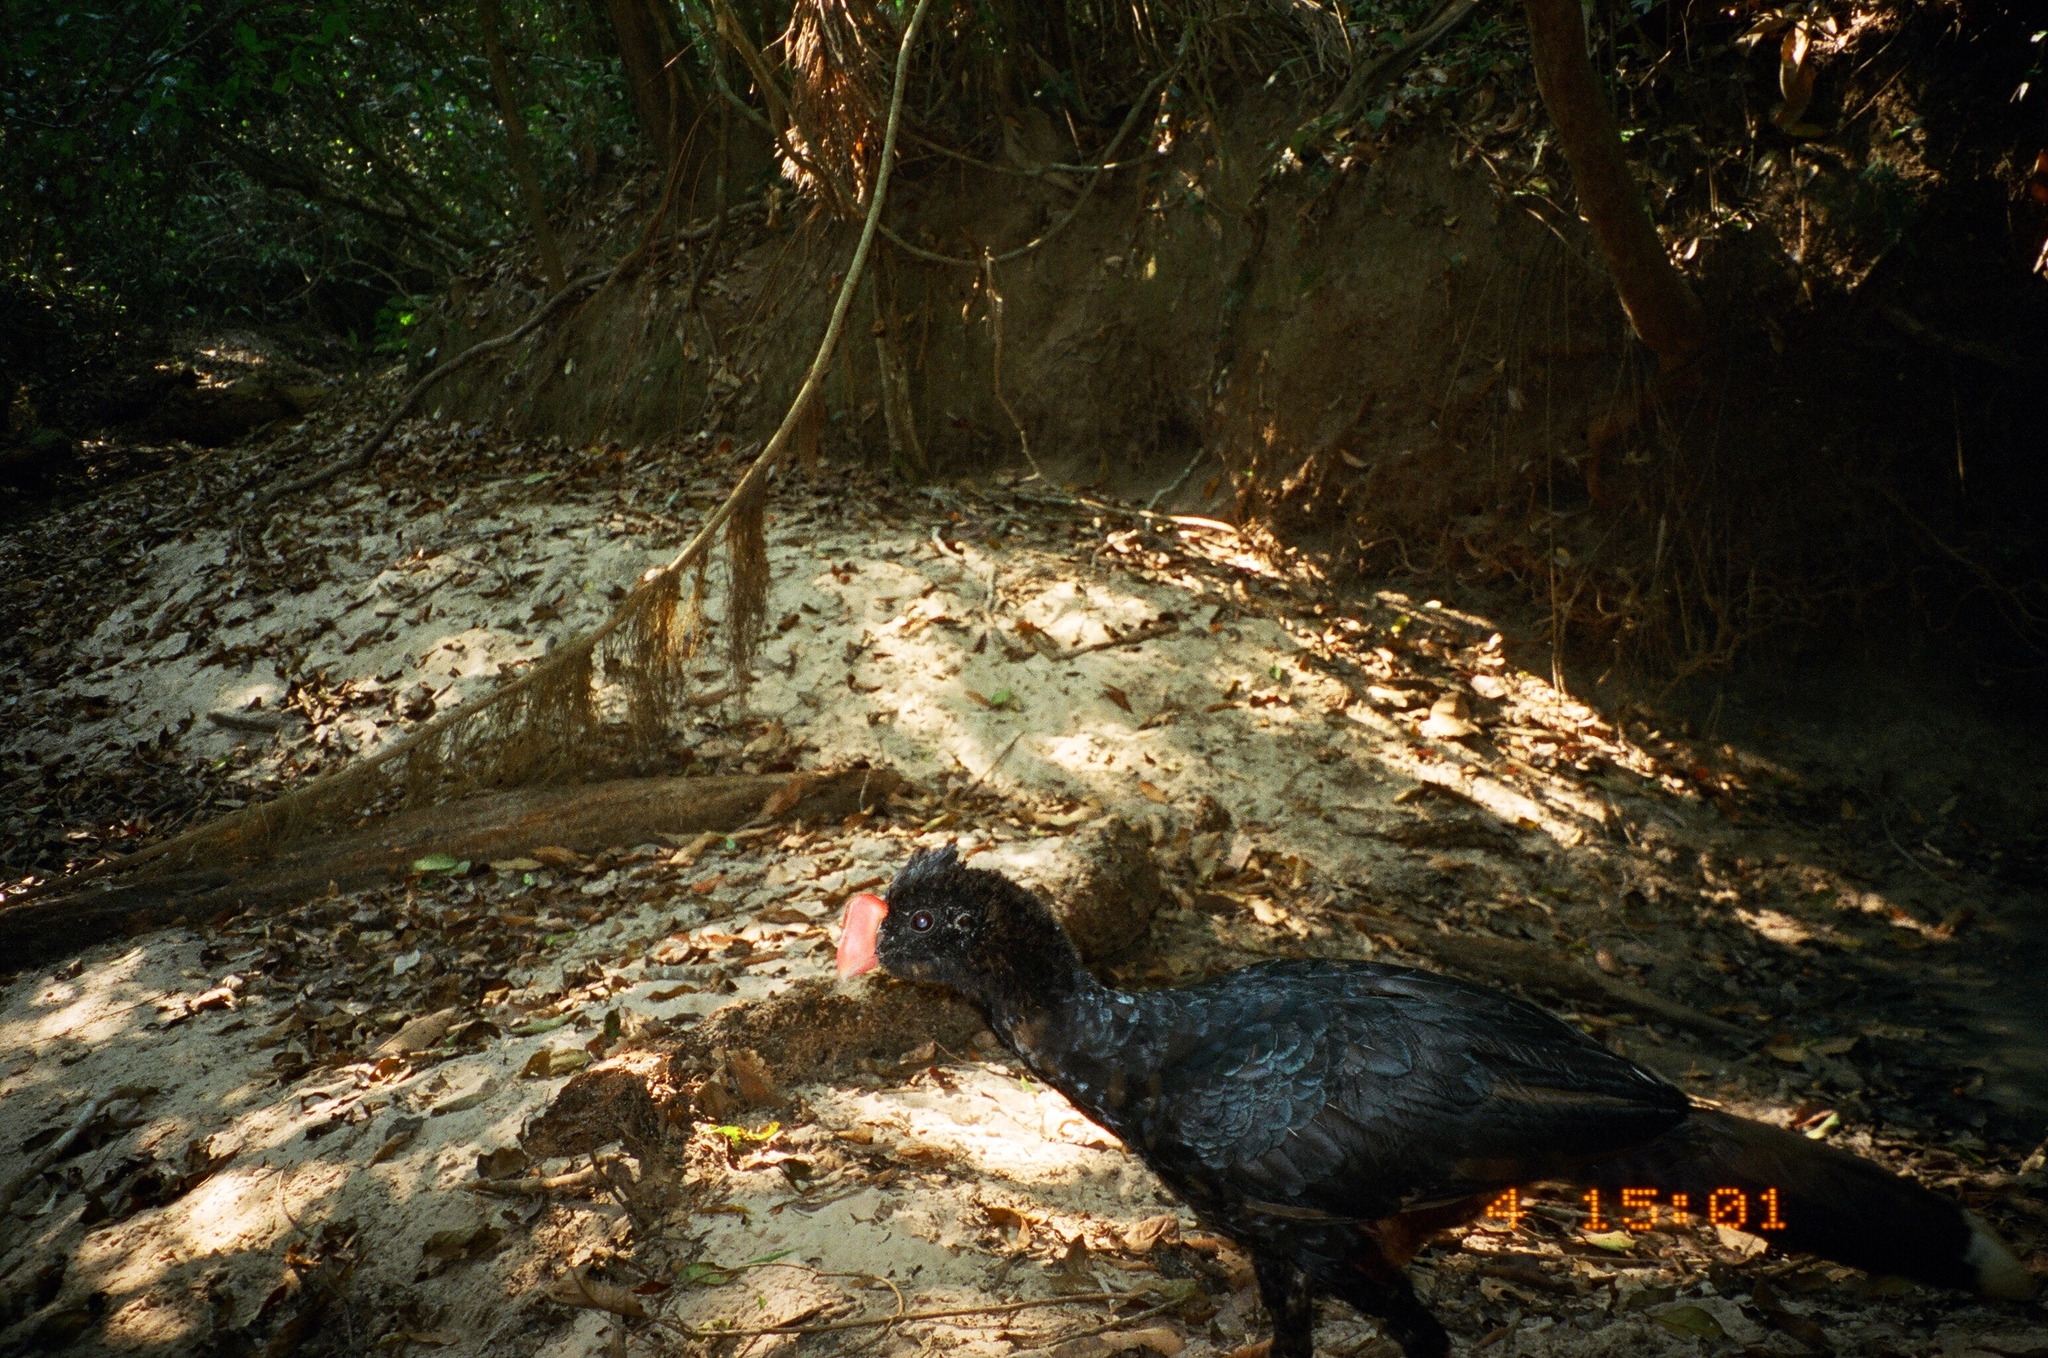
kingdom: Animalia
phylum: Chordata
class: Aves
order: Galliformes
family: Cracidae
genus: Mitu
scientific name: Mitu tuberosum
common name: Razor-billed curassow
